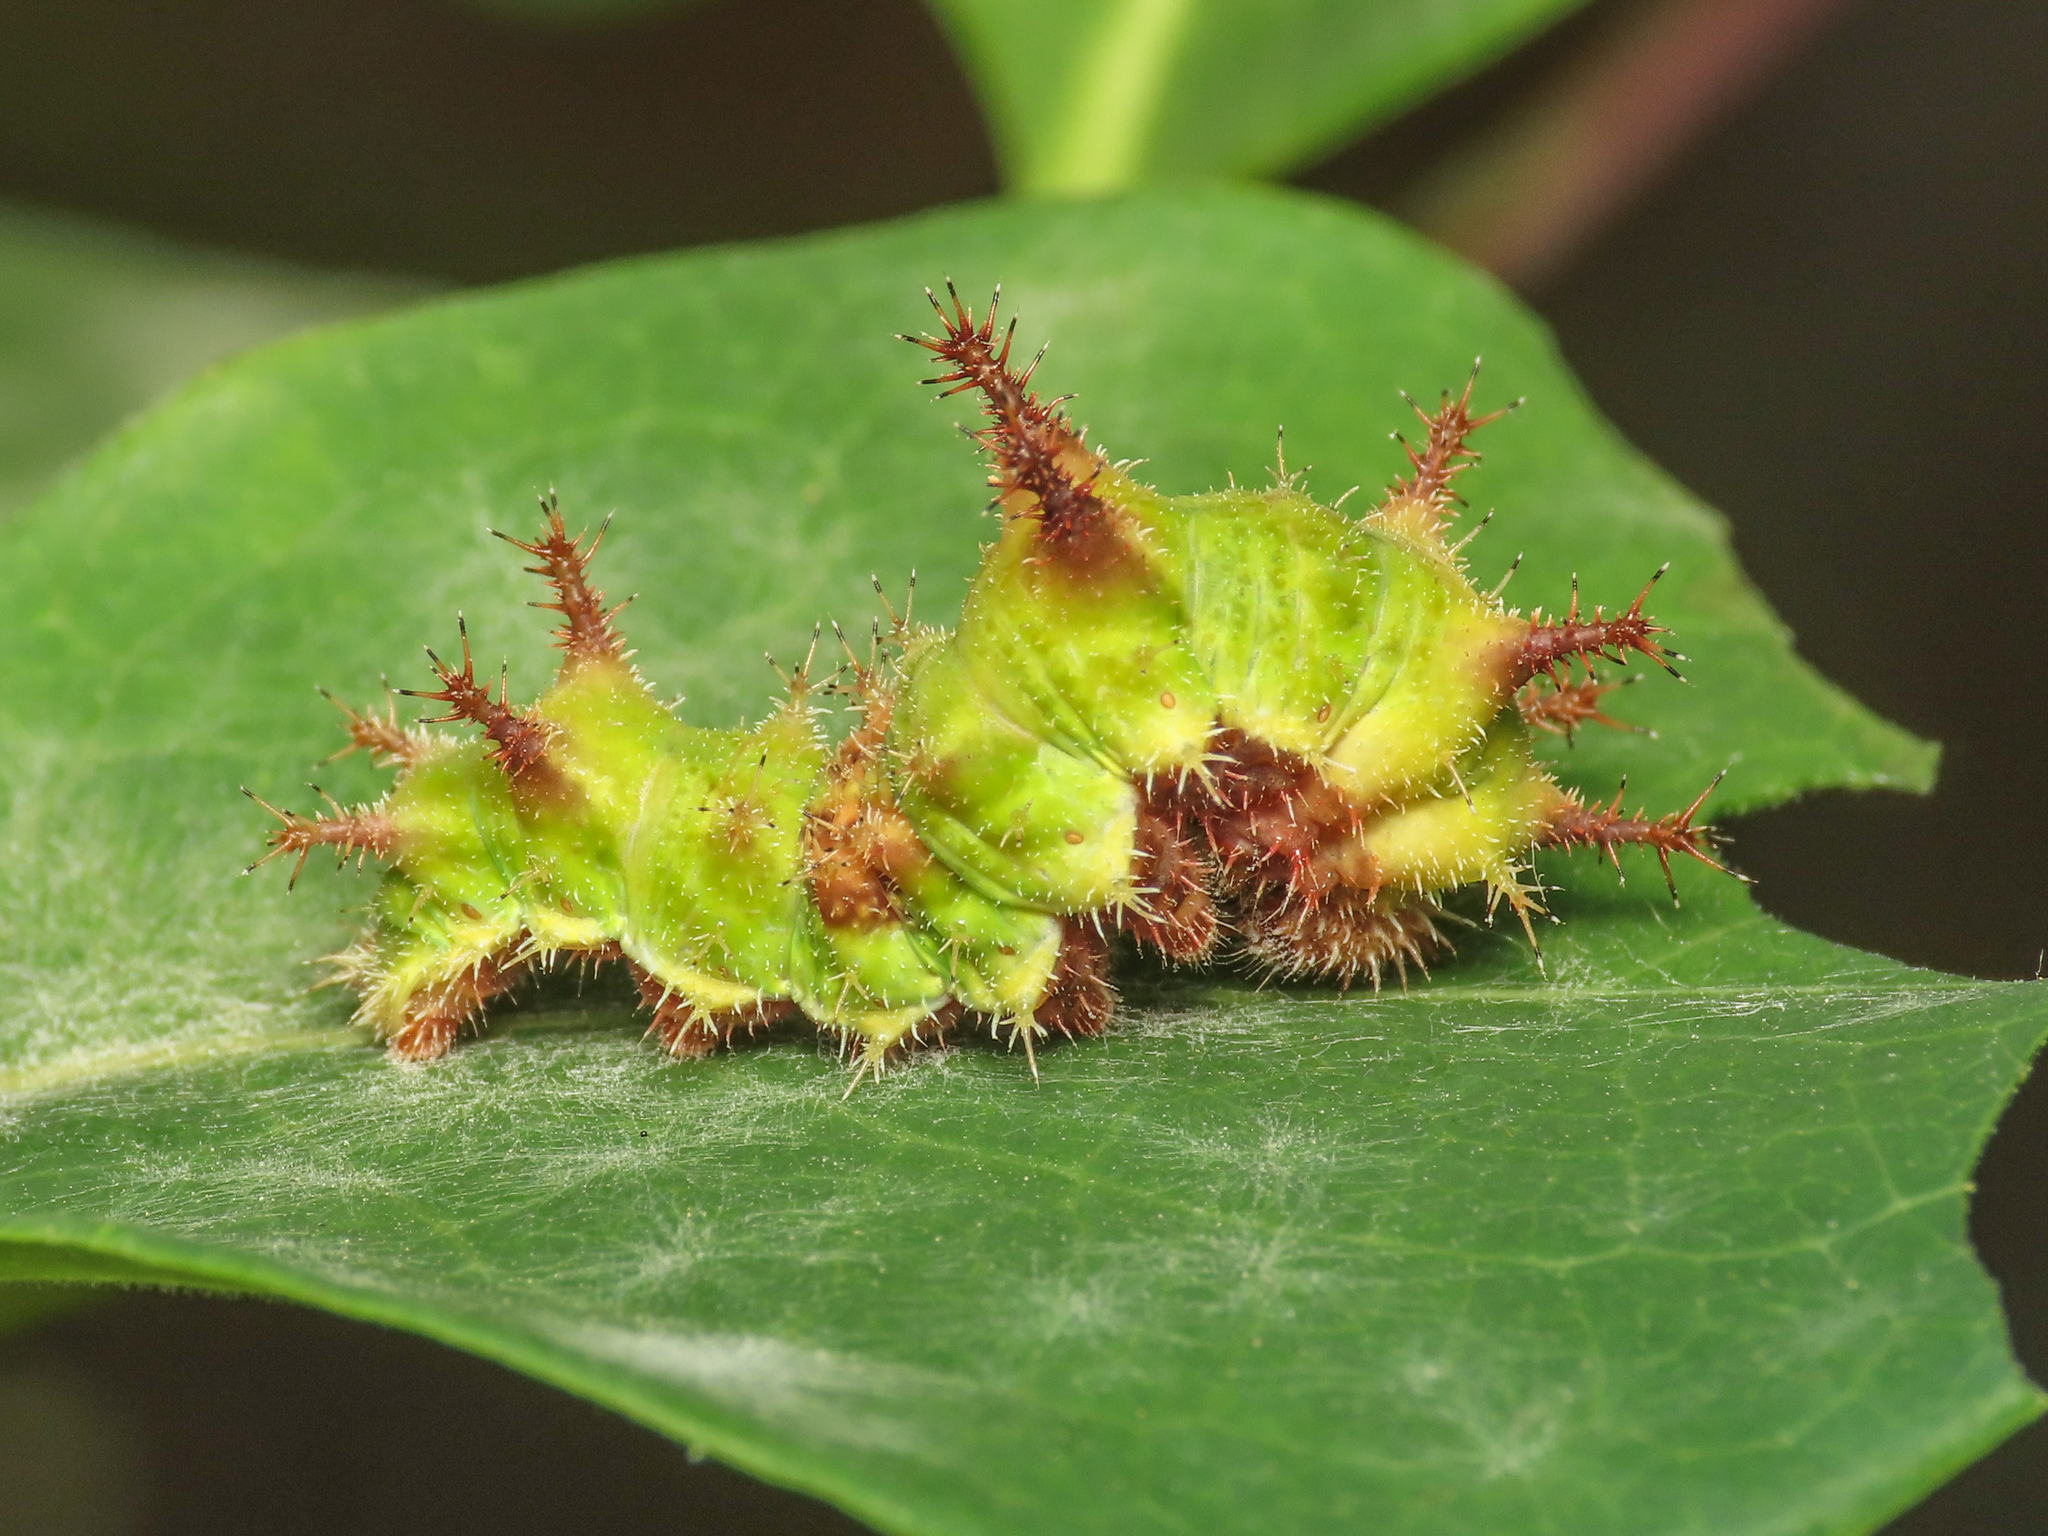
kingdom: Animalia
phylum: Arthropoda
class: Insecta
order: Lepidoptera
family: Nymphalidae
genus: Limenitis
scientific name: Limenitis reducta
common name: Southern white admiral
